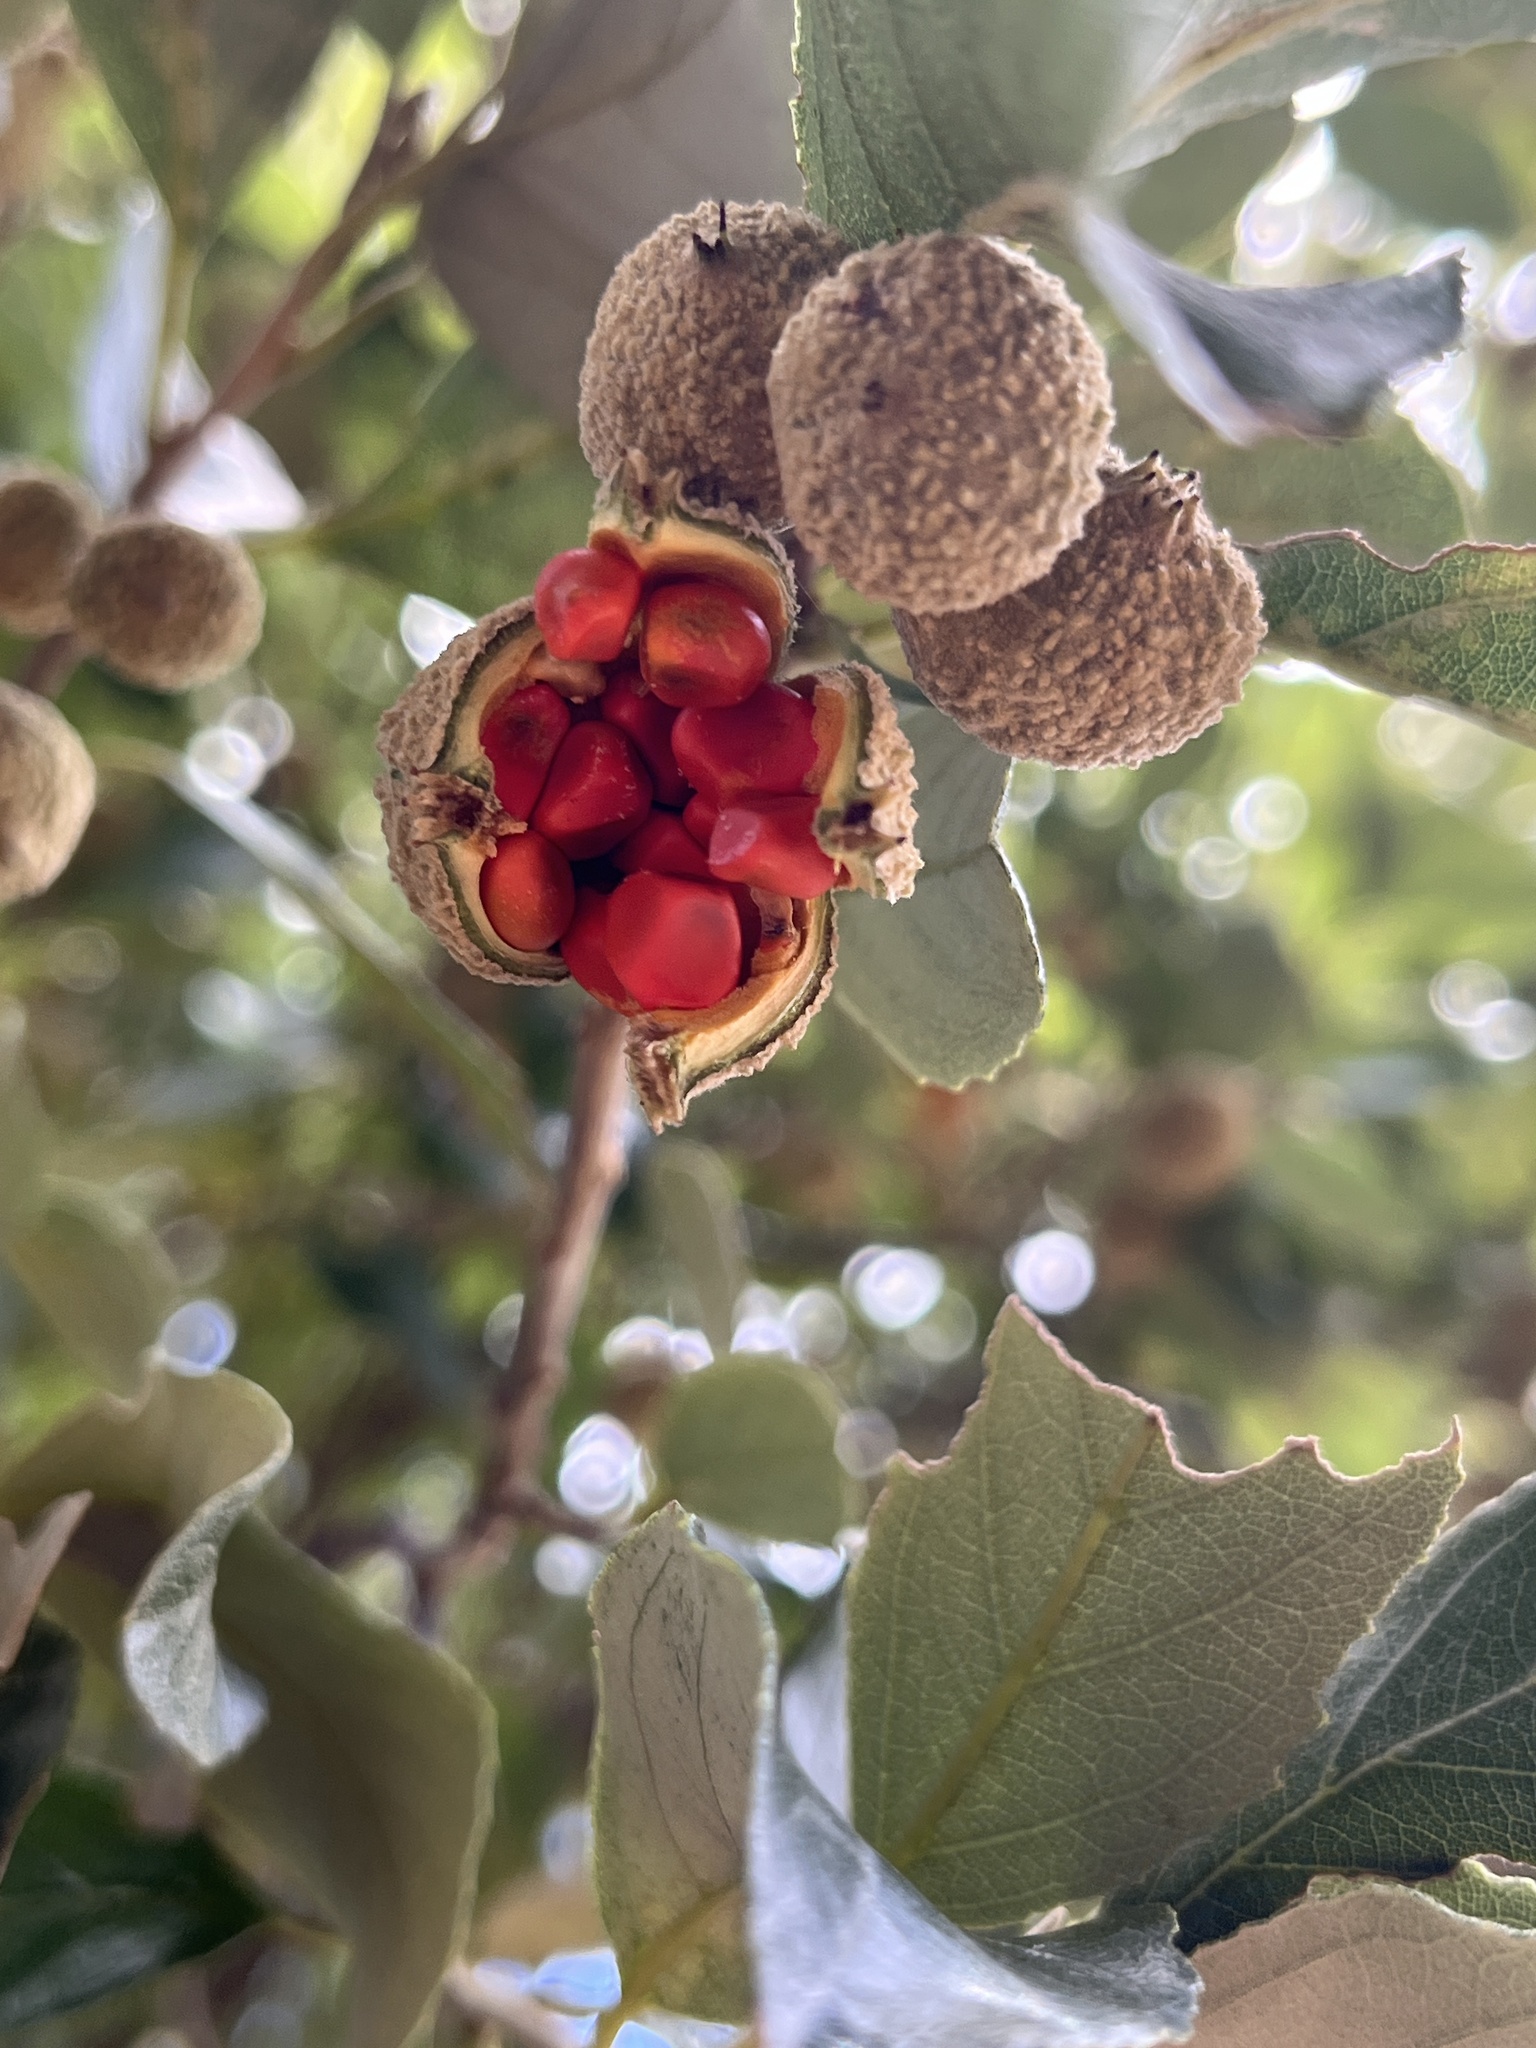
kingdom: Plantae
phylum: Tracheophyta
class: Magnoliopsida
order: Malpighiales
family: Achariaceae
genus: Kiggelaria
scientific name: Kiggelaria africana
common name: Wild peach
